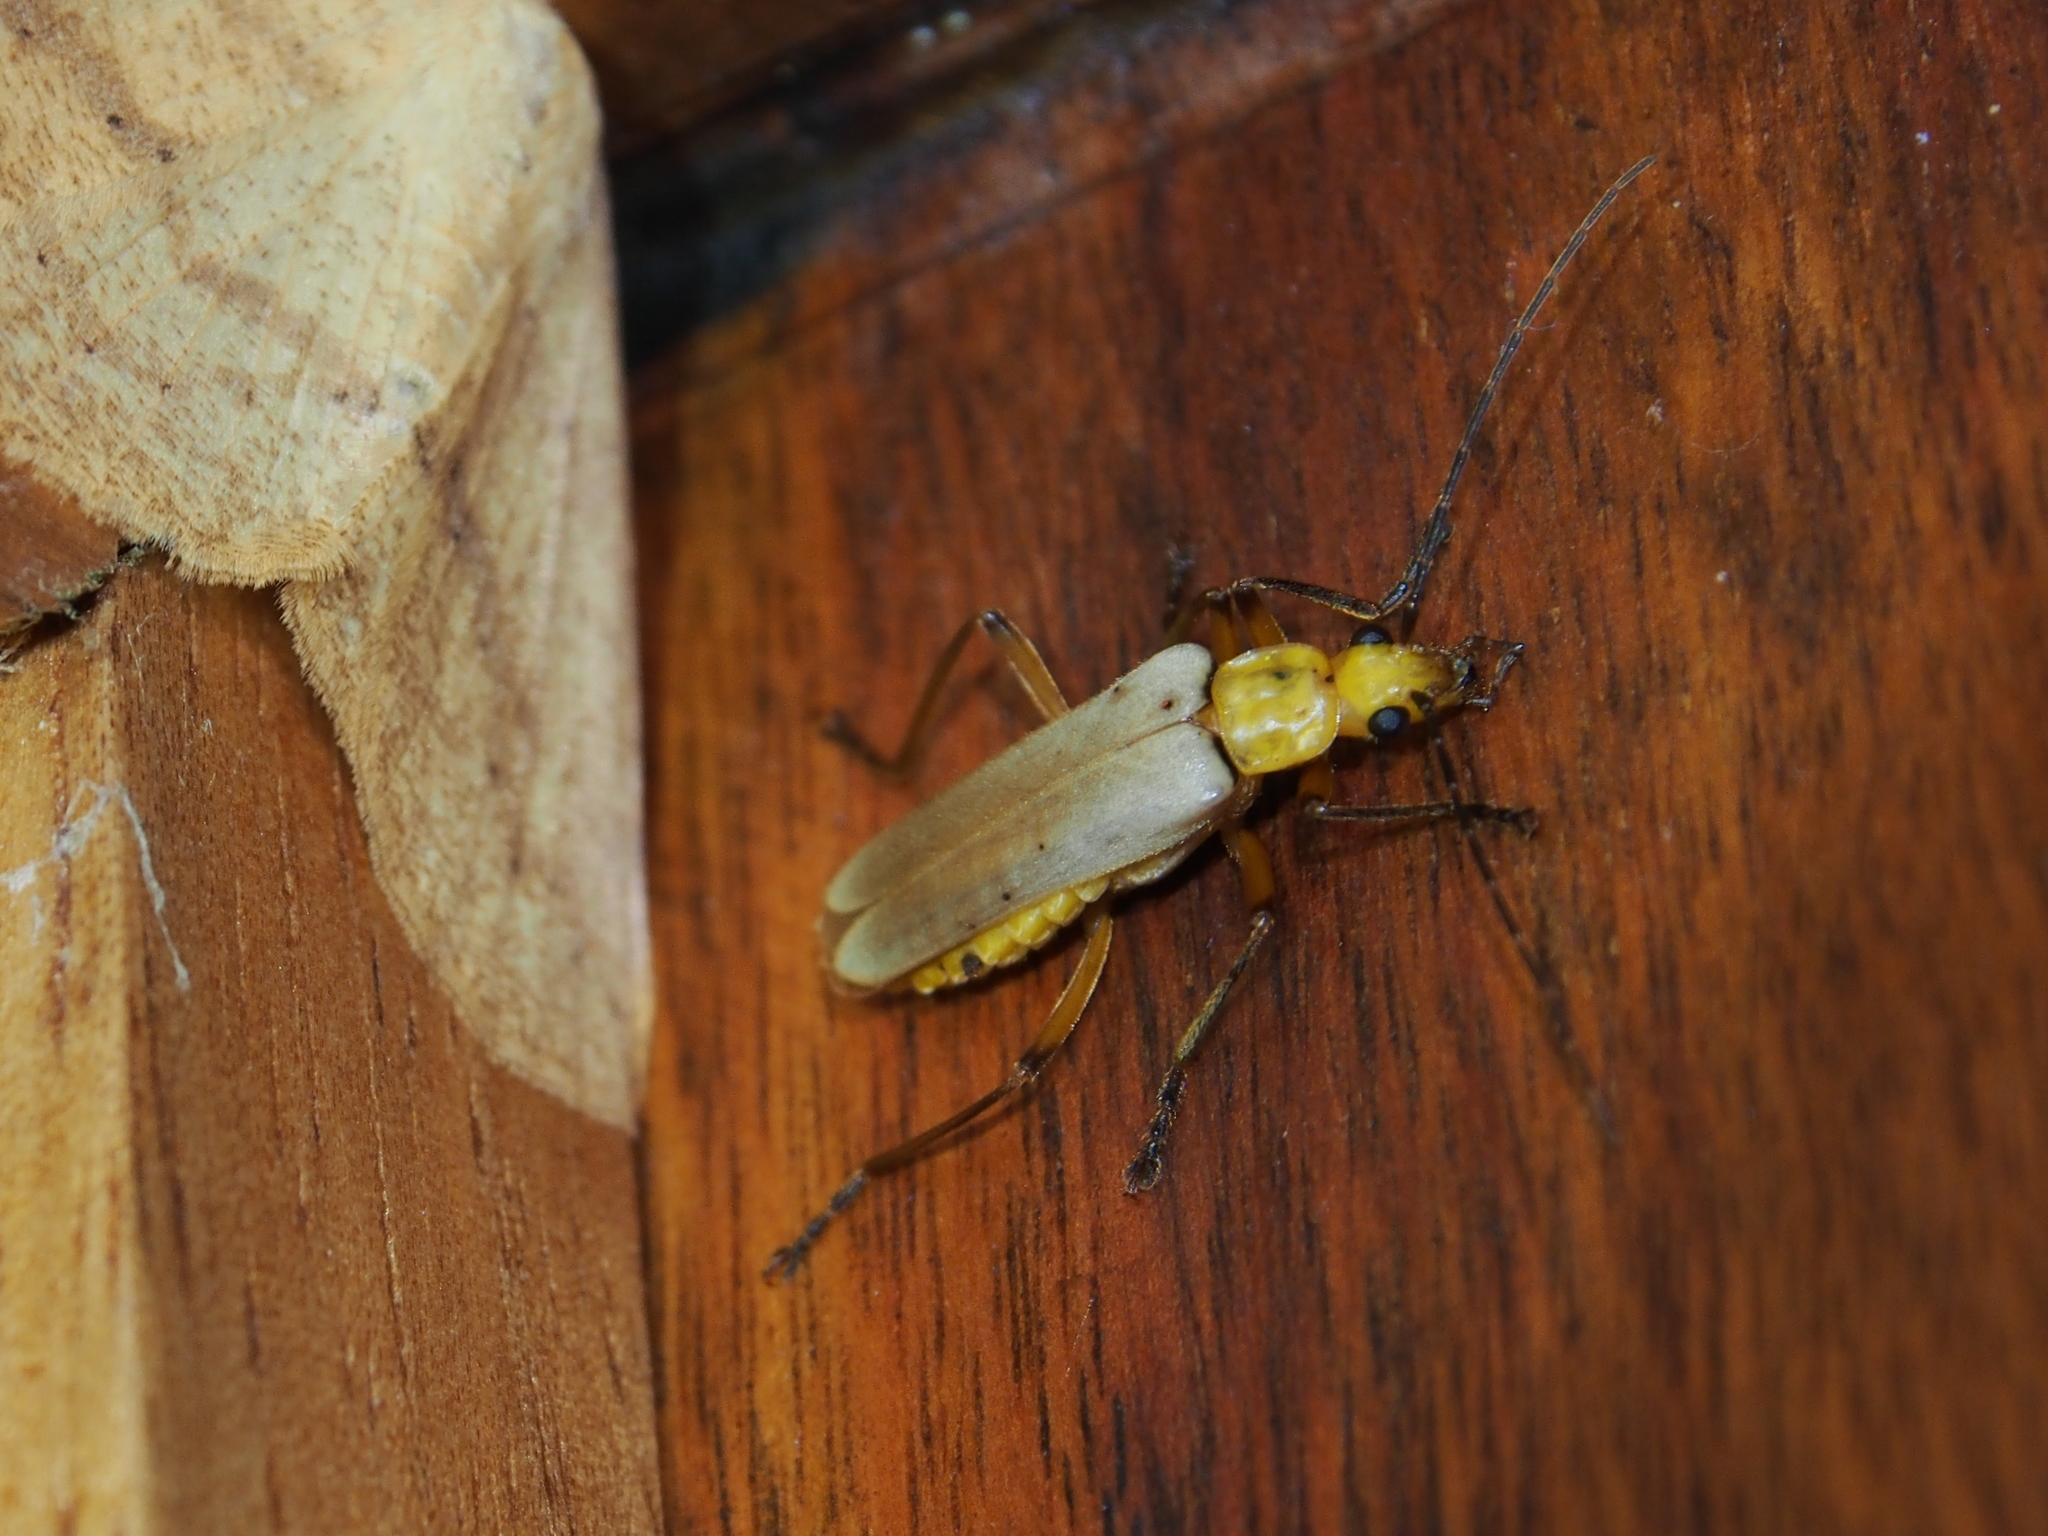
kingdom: Animalia
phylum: Arthropoda
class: Insecta
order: Coleoptera
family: Cantharidae
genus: Chauliognathus
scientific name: Chauliognathus
